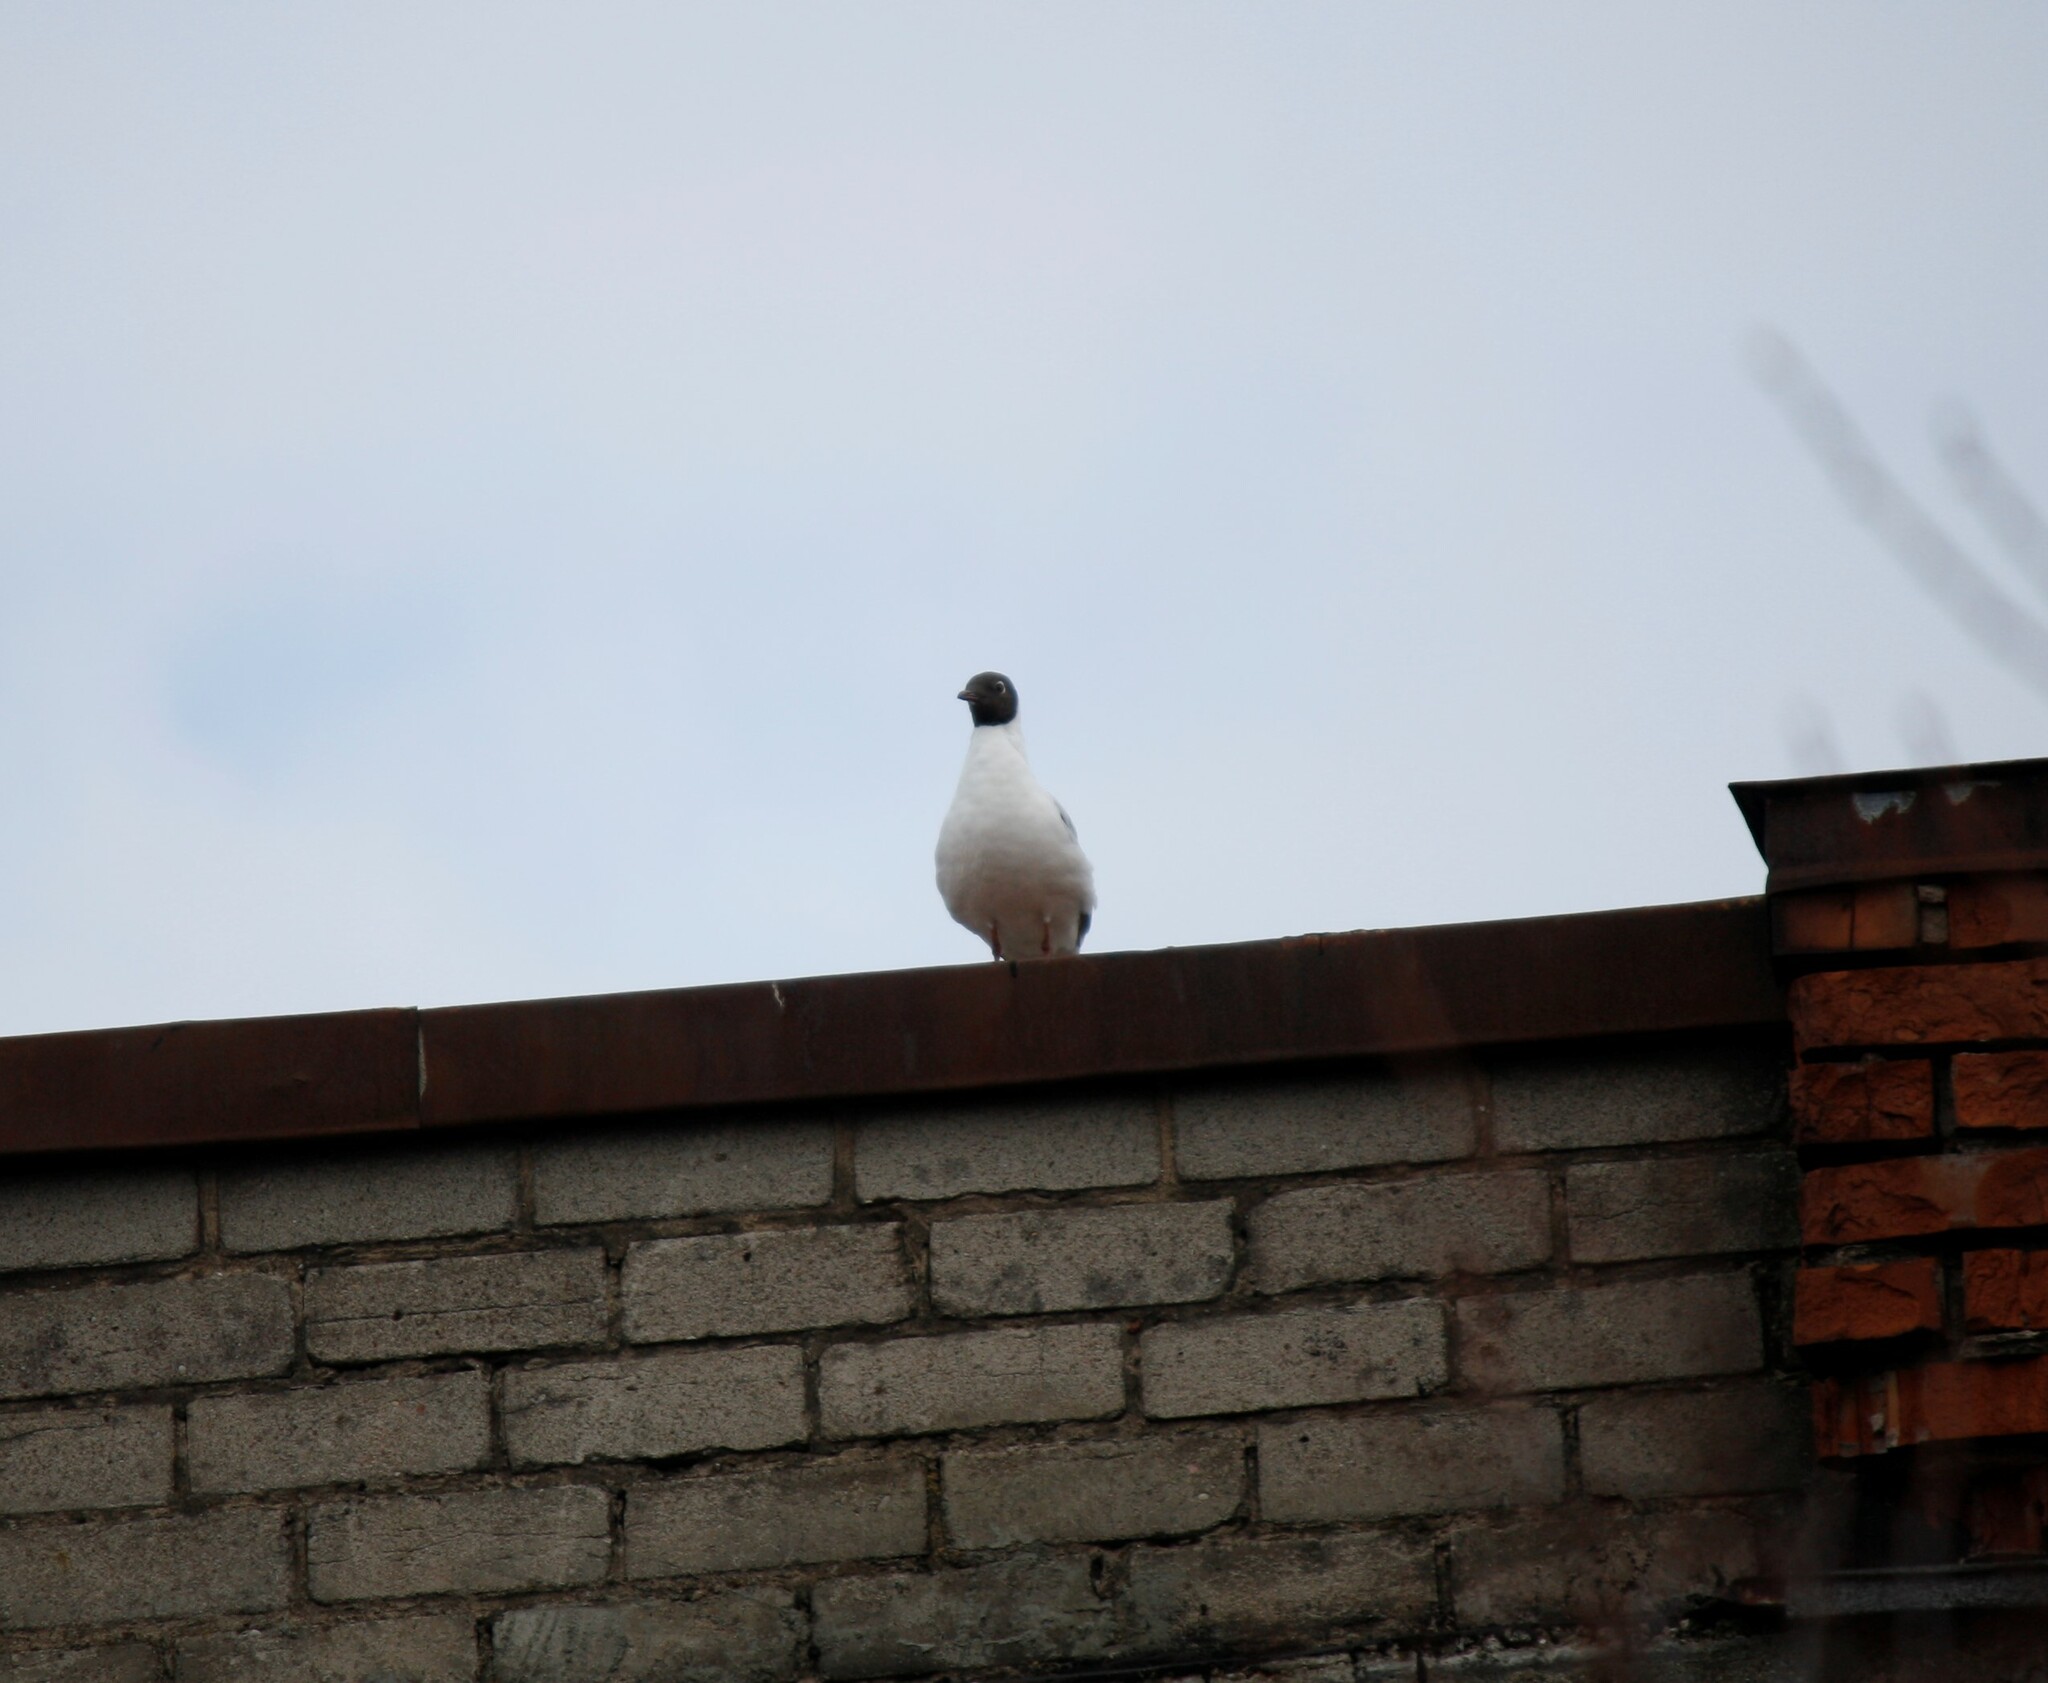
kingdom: Animalia
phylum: Chordata
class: Aves
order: Charadriiformes
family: Laridae
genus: Chroicocephalus
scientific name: Chroicocephalus ridibundus
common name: Black-headed gull
